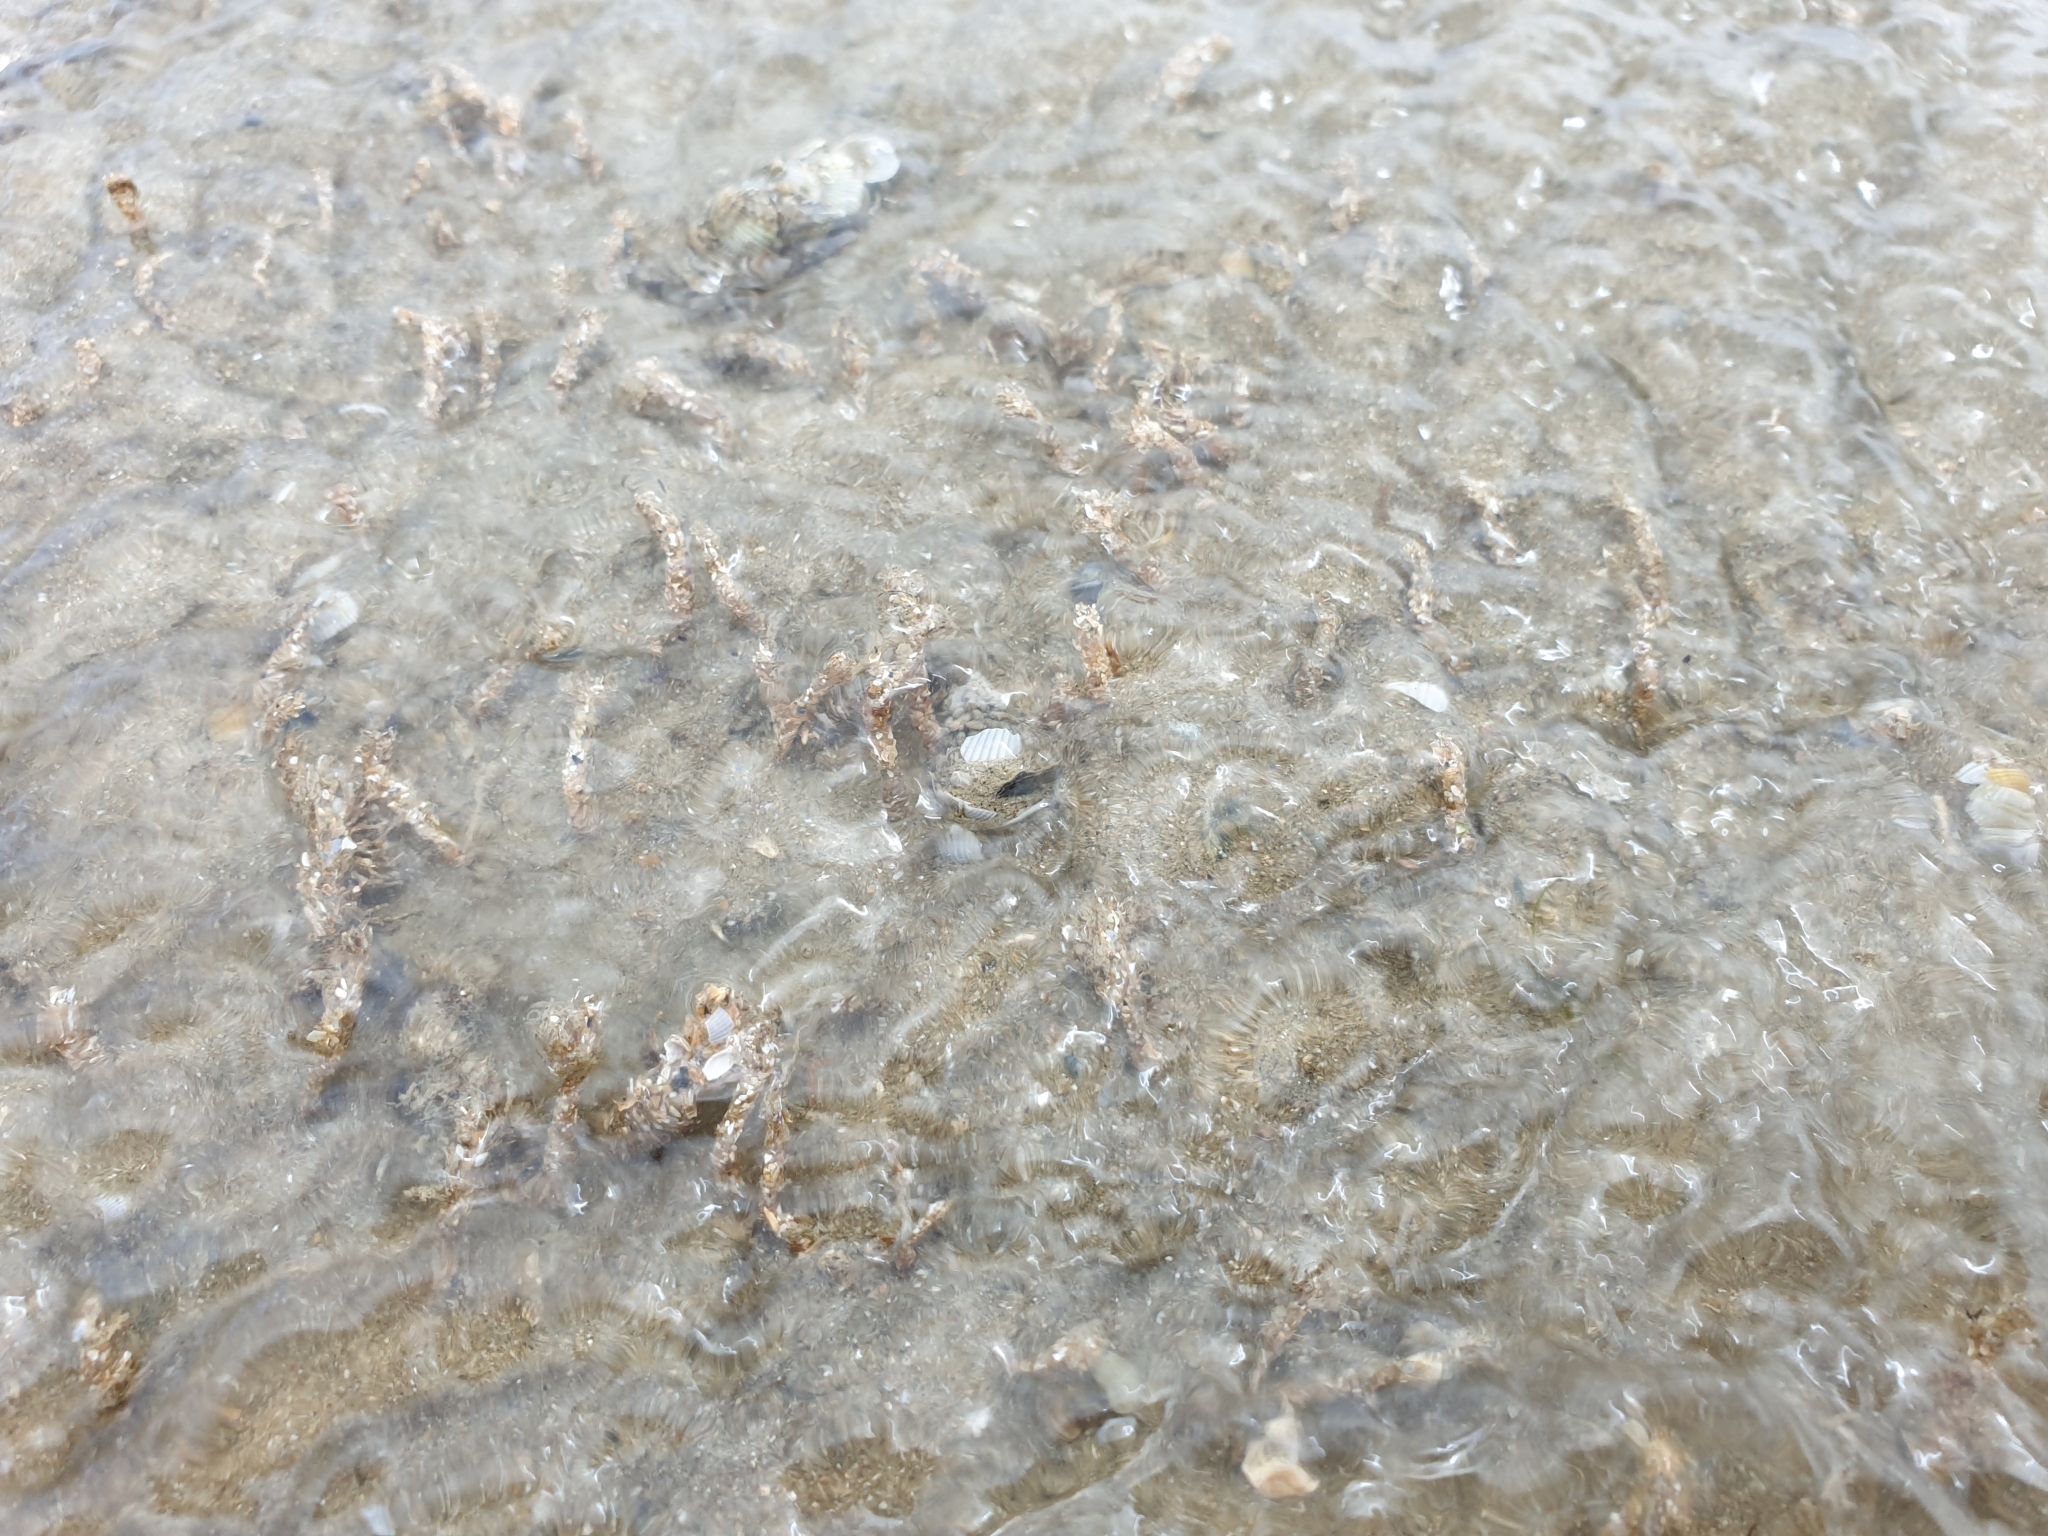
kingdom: Animalia
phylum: Annelida
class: Polychaeta
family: Terebellidae
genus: Lanice
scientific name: Lanice conchilega
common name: Sand mason
